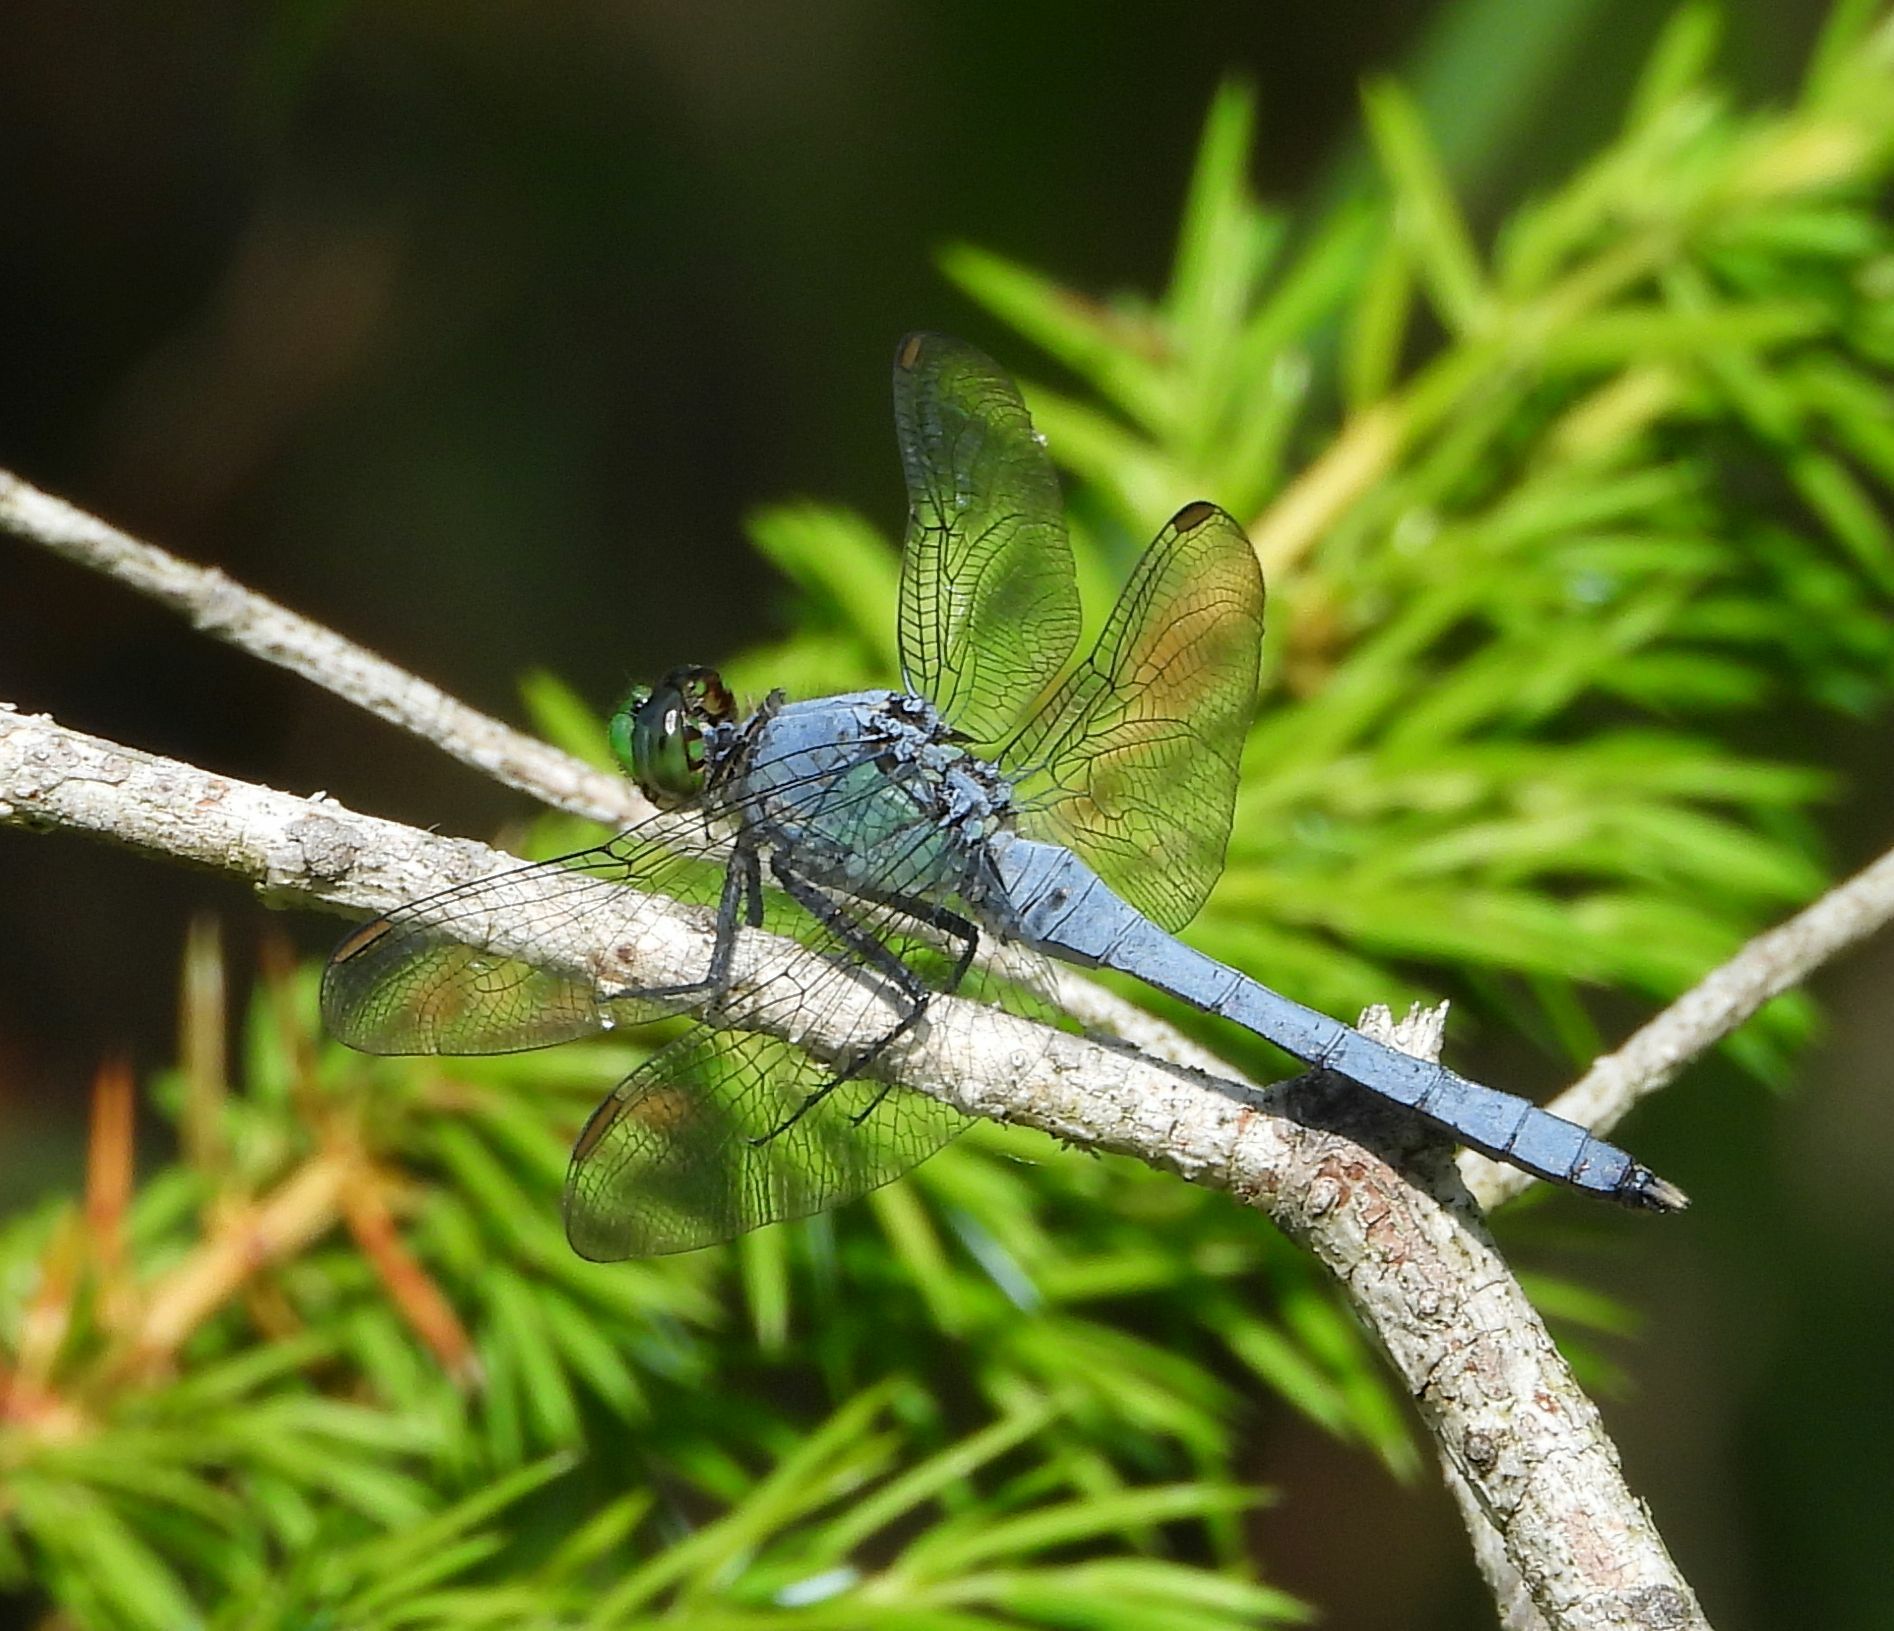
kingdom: Animalia
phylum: Arthropoda
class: Insecta
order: Odonata
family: Libellulidae
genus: Erythemis
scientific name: Erythemis simplicicollis
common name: Eastern pondhawk
